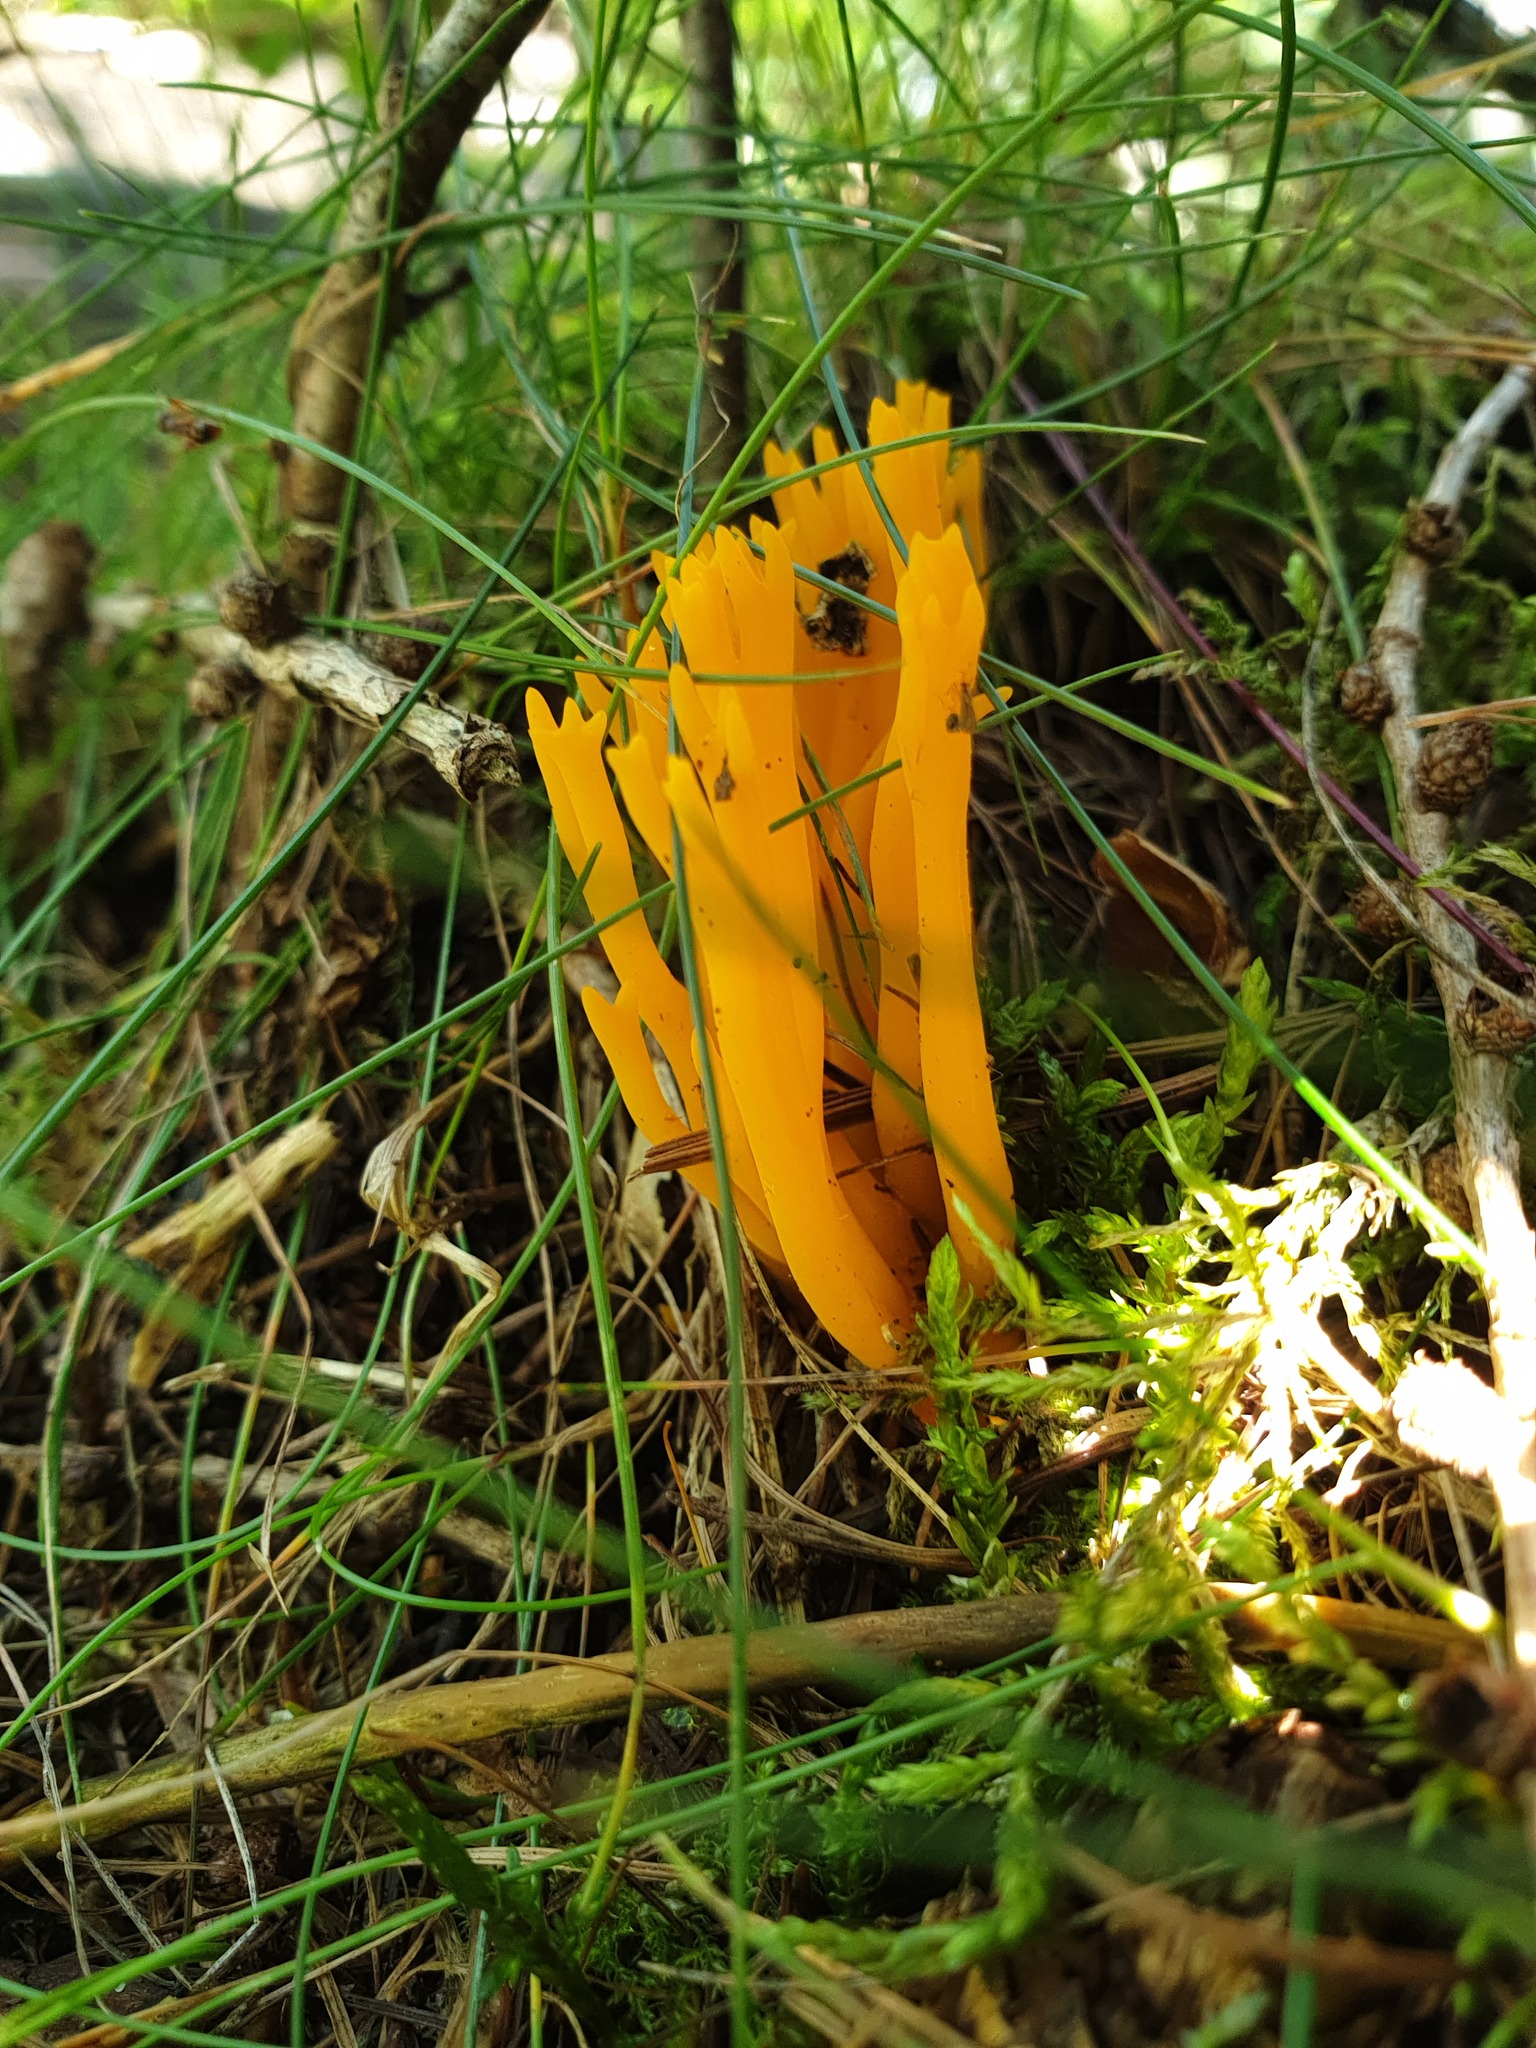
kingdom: Fungi
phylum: Basidiomycota
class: Dacrymycetes
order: Dacrymycetales
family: Dacrymycetaceae
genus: Calocera
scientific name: Calocera viscosa
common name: Yellow stagshorn
